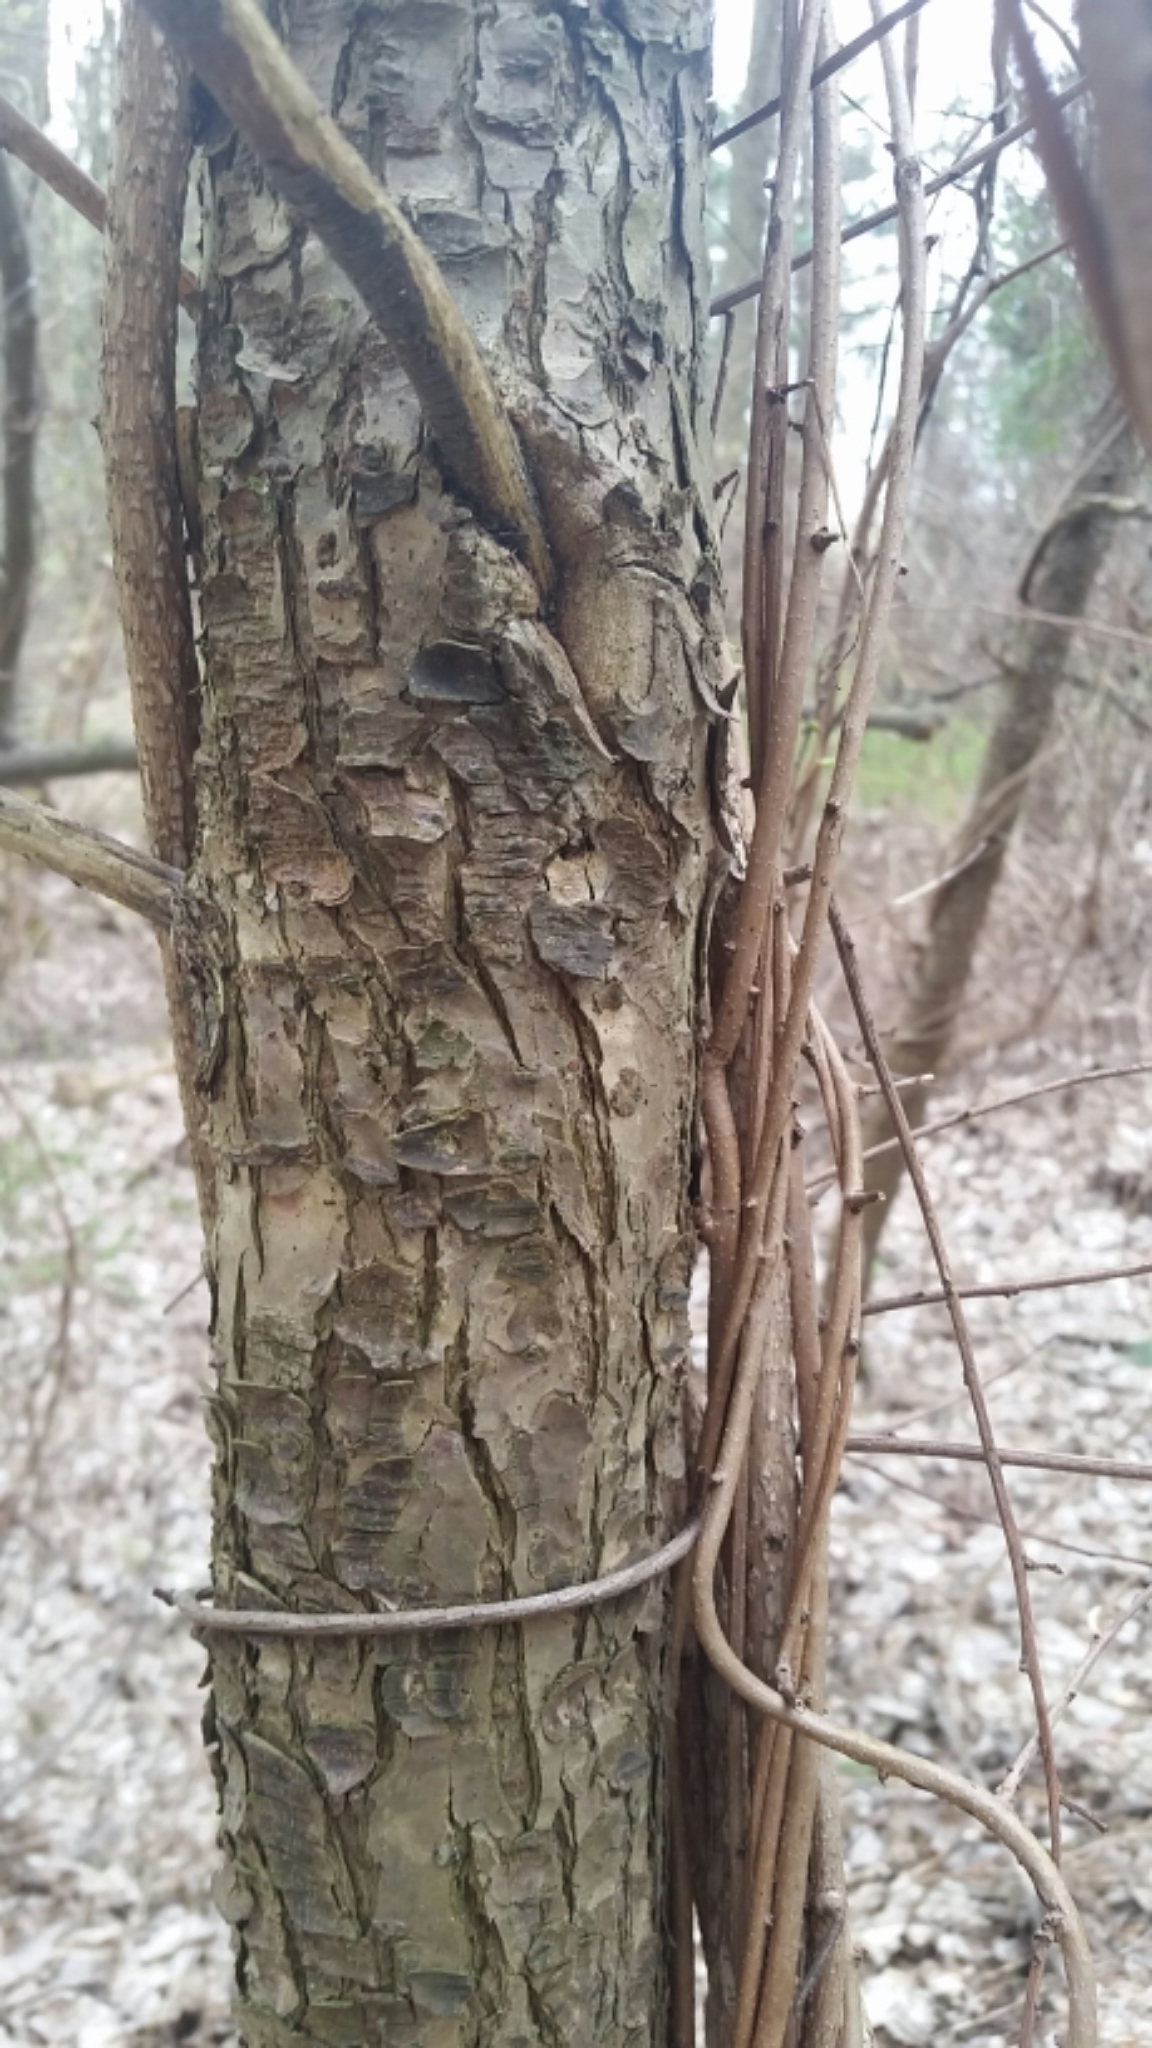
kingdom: Plantae
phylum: Tracheophyta
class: Magnoliopsida
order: Fagales
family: Betulaceae
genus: Ostrya
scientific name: Ostrya virginiana
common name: Ironwood
